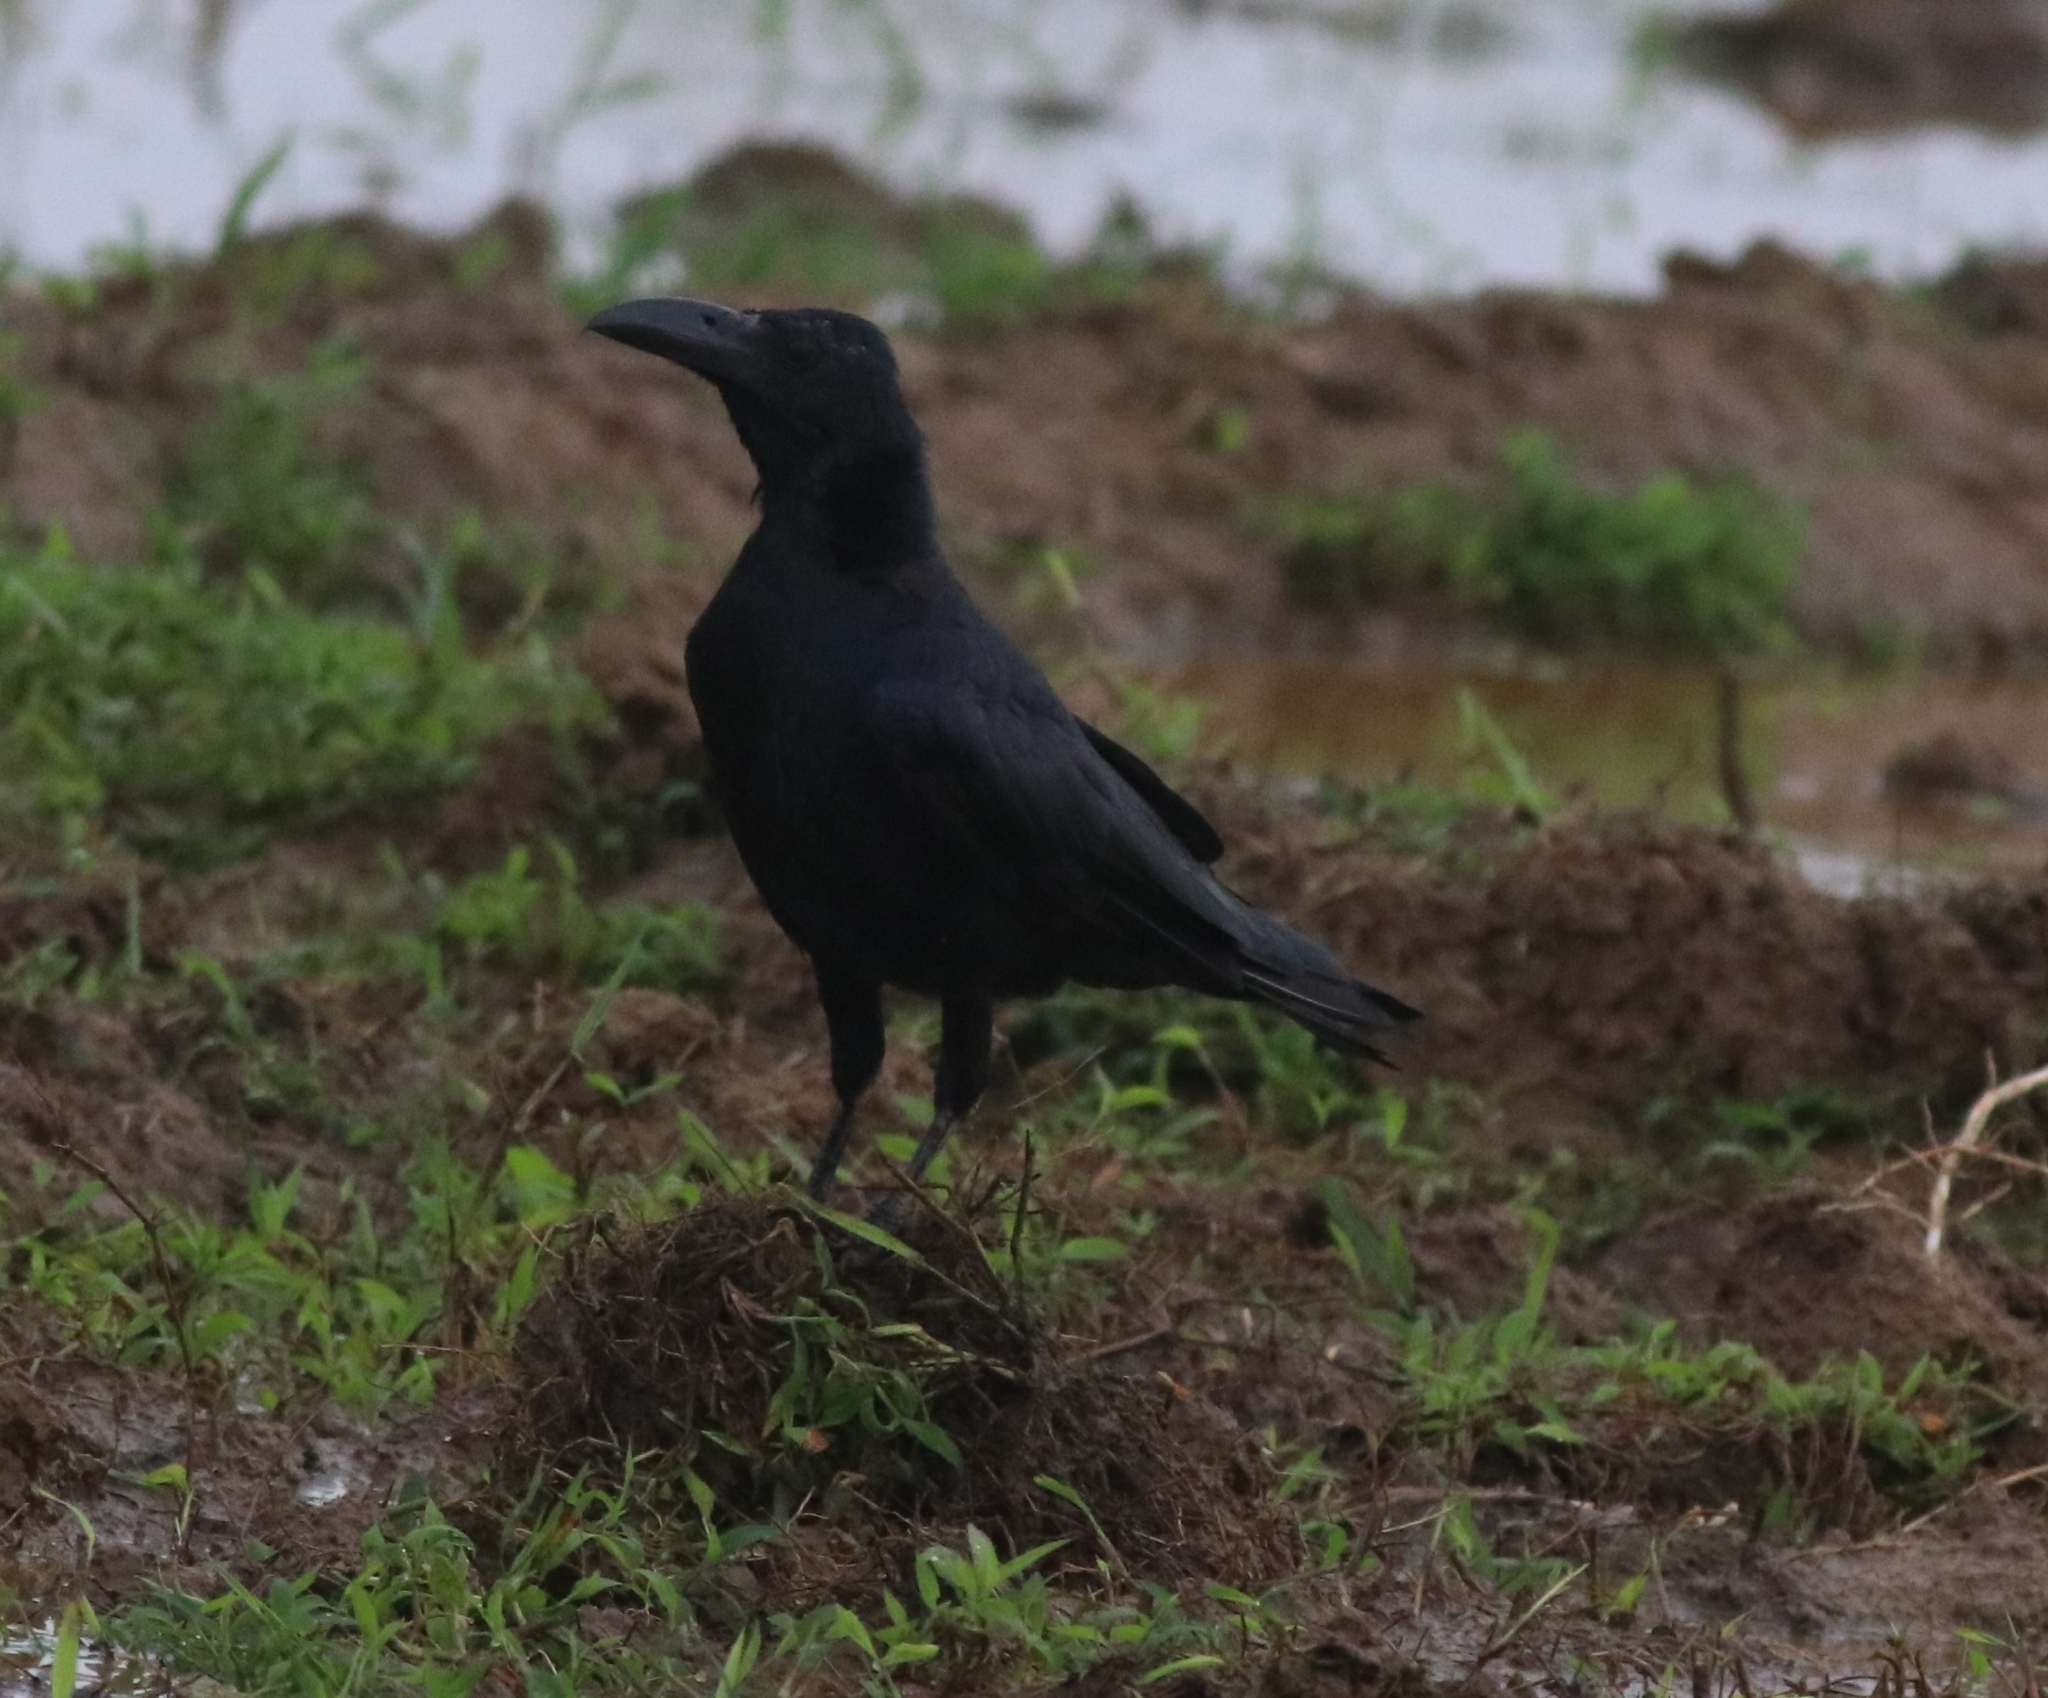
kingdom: Animalia
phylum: Chordata
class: Aves
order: Passeriformes
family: Corvidae
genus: Corvus
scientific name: Corvus macrorhynchos
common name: Large-billed crow
